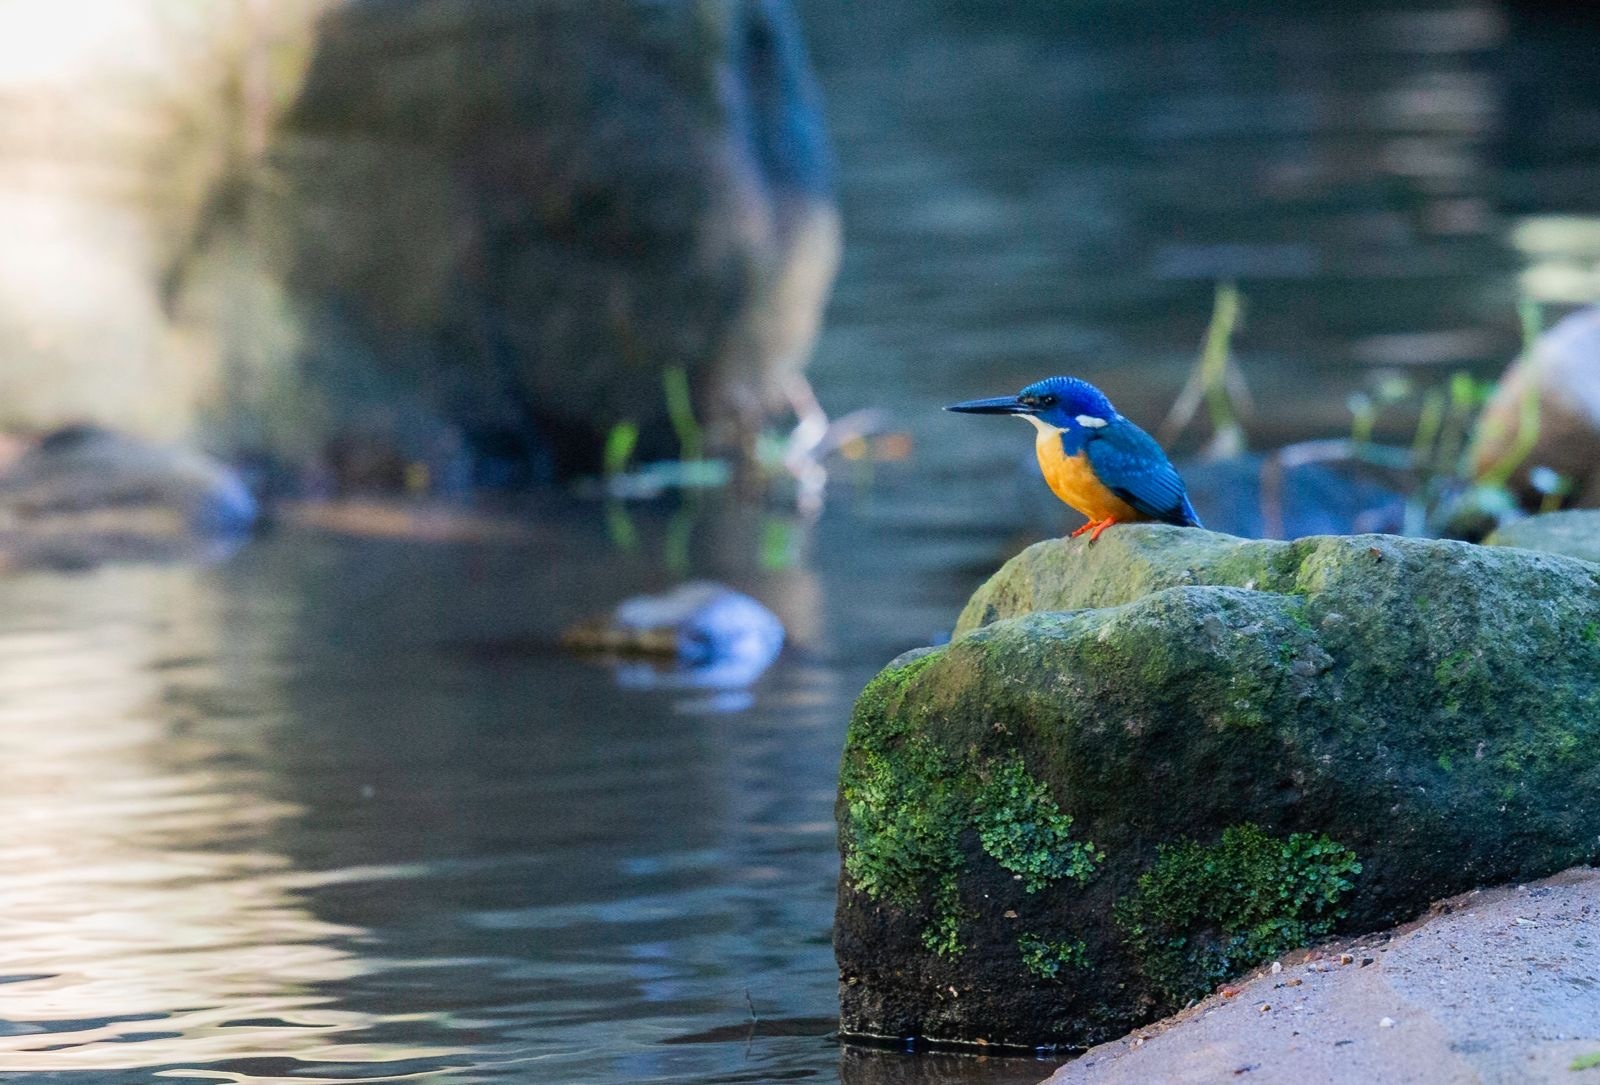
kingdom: Animalia
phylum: Chordata
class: Aves
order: Coraciiformes
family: Alcedinidae
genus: Alcedo
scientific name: Alcedo semitorquata
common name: Half-collared kingfisher
